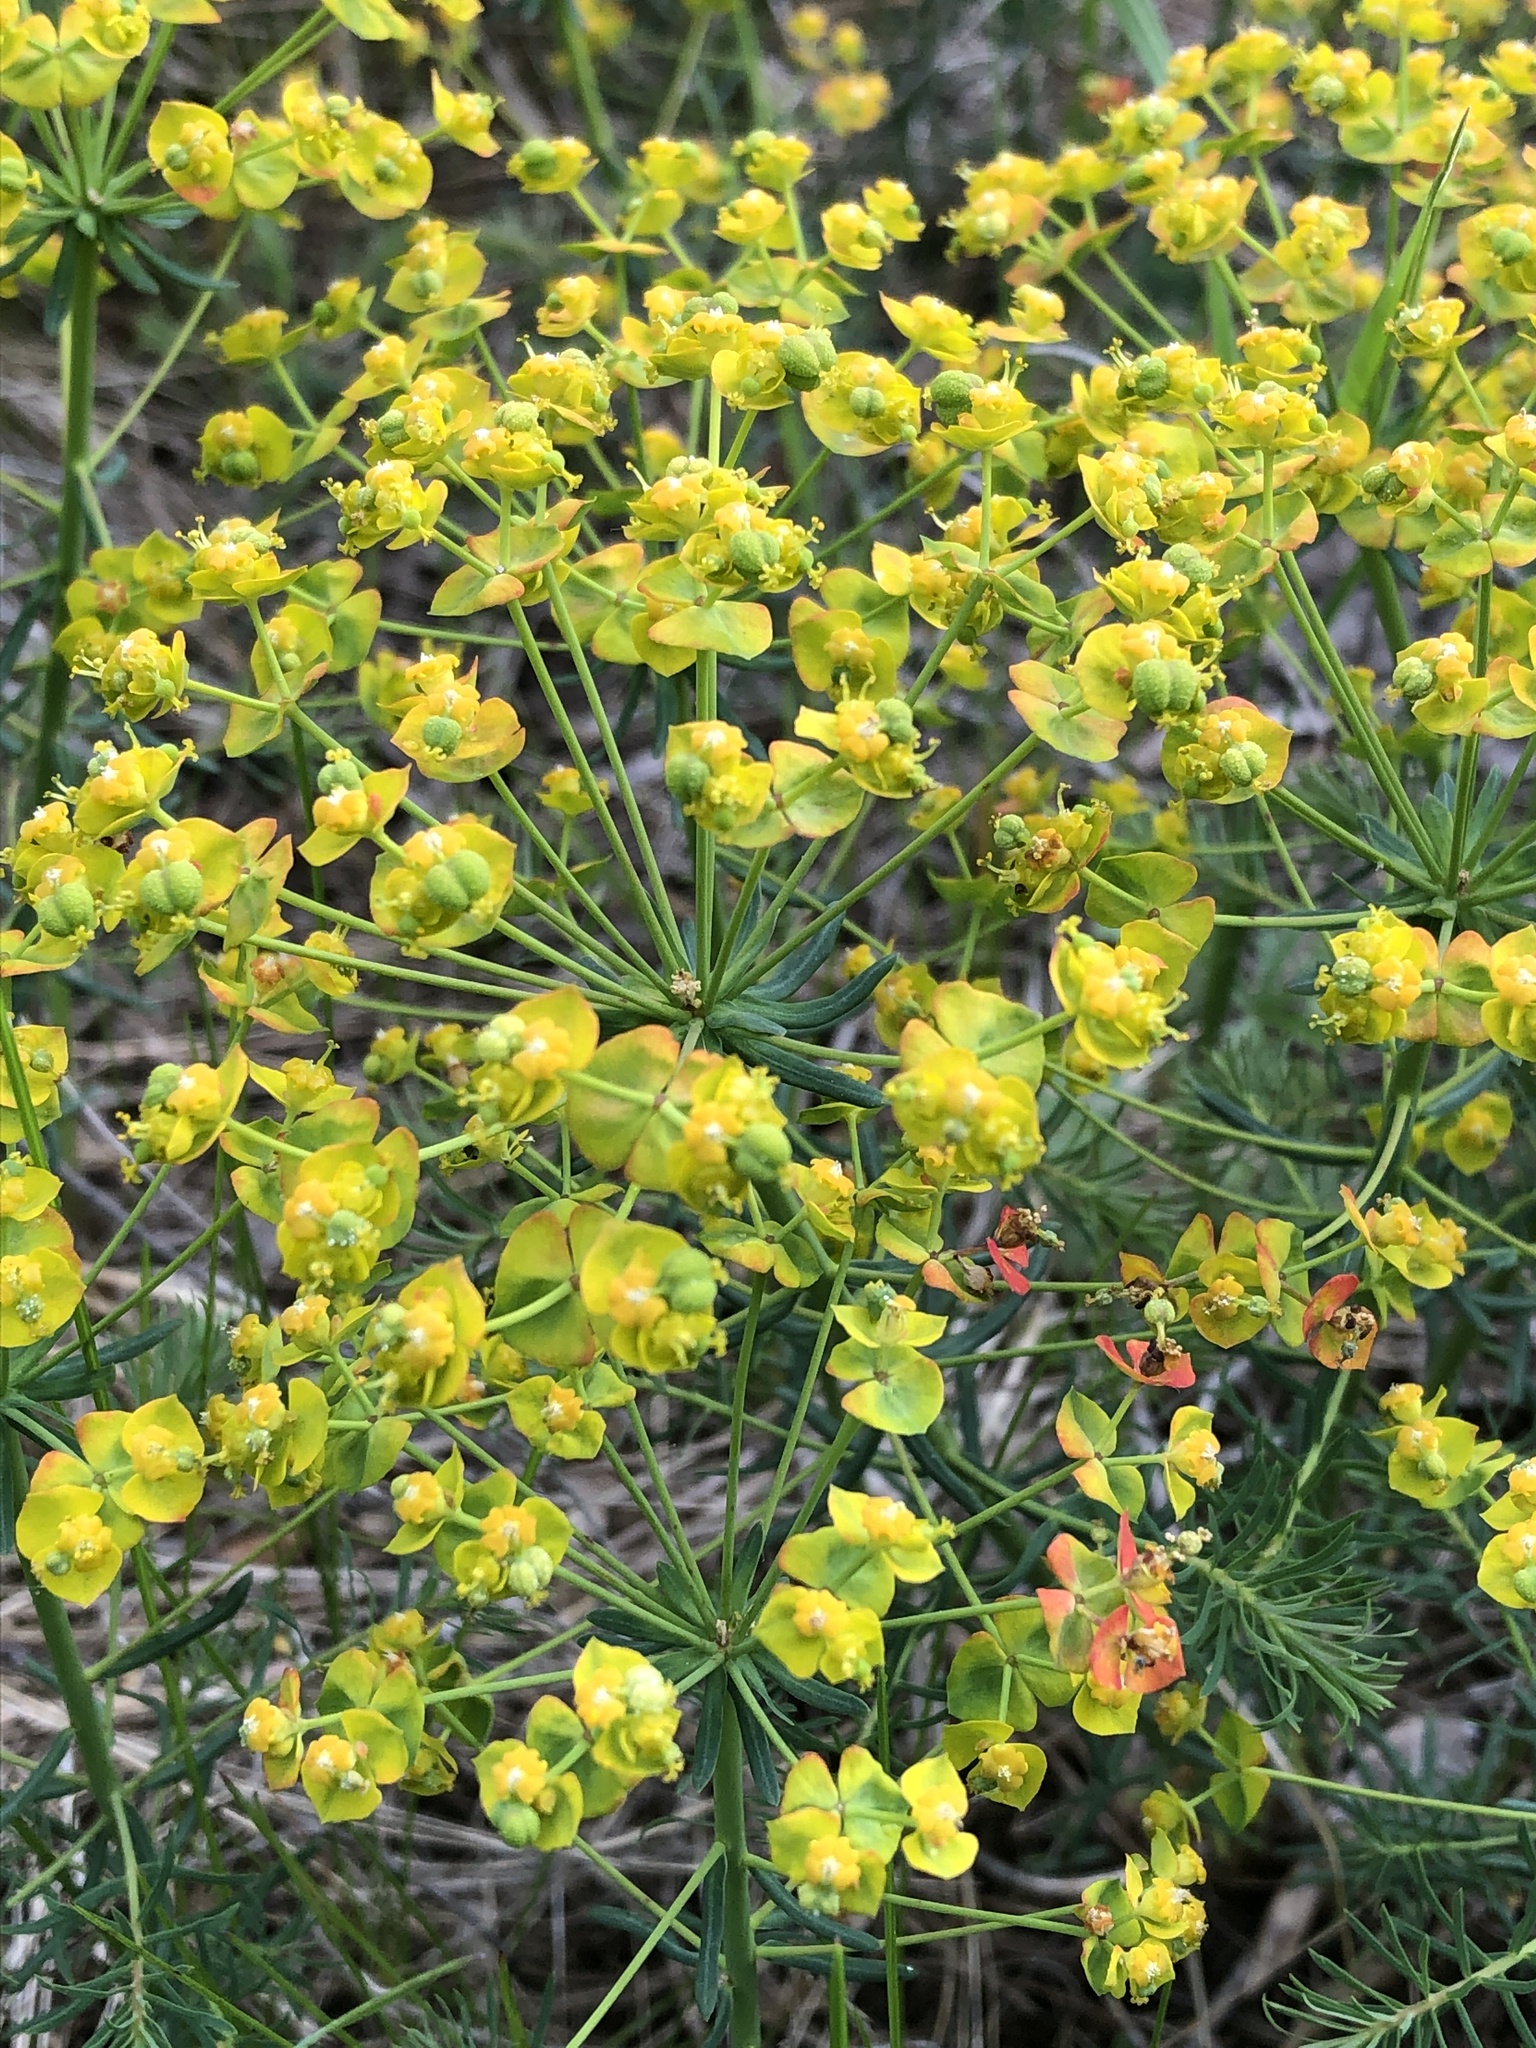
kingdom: Plantae
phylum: Tracheophyta
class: Magnoliopsida
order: Malpighiales
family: Euphorbiaceae
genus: Euphorbia
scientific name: Euphorbia cyparissias
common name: Cypress spurge
